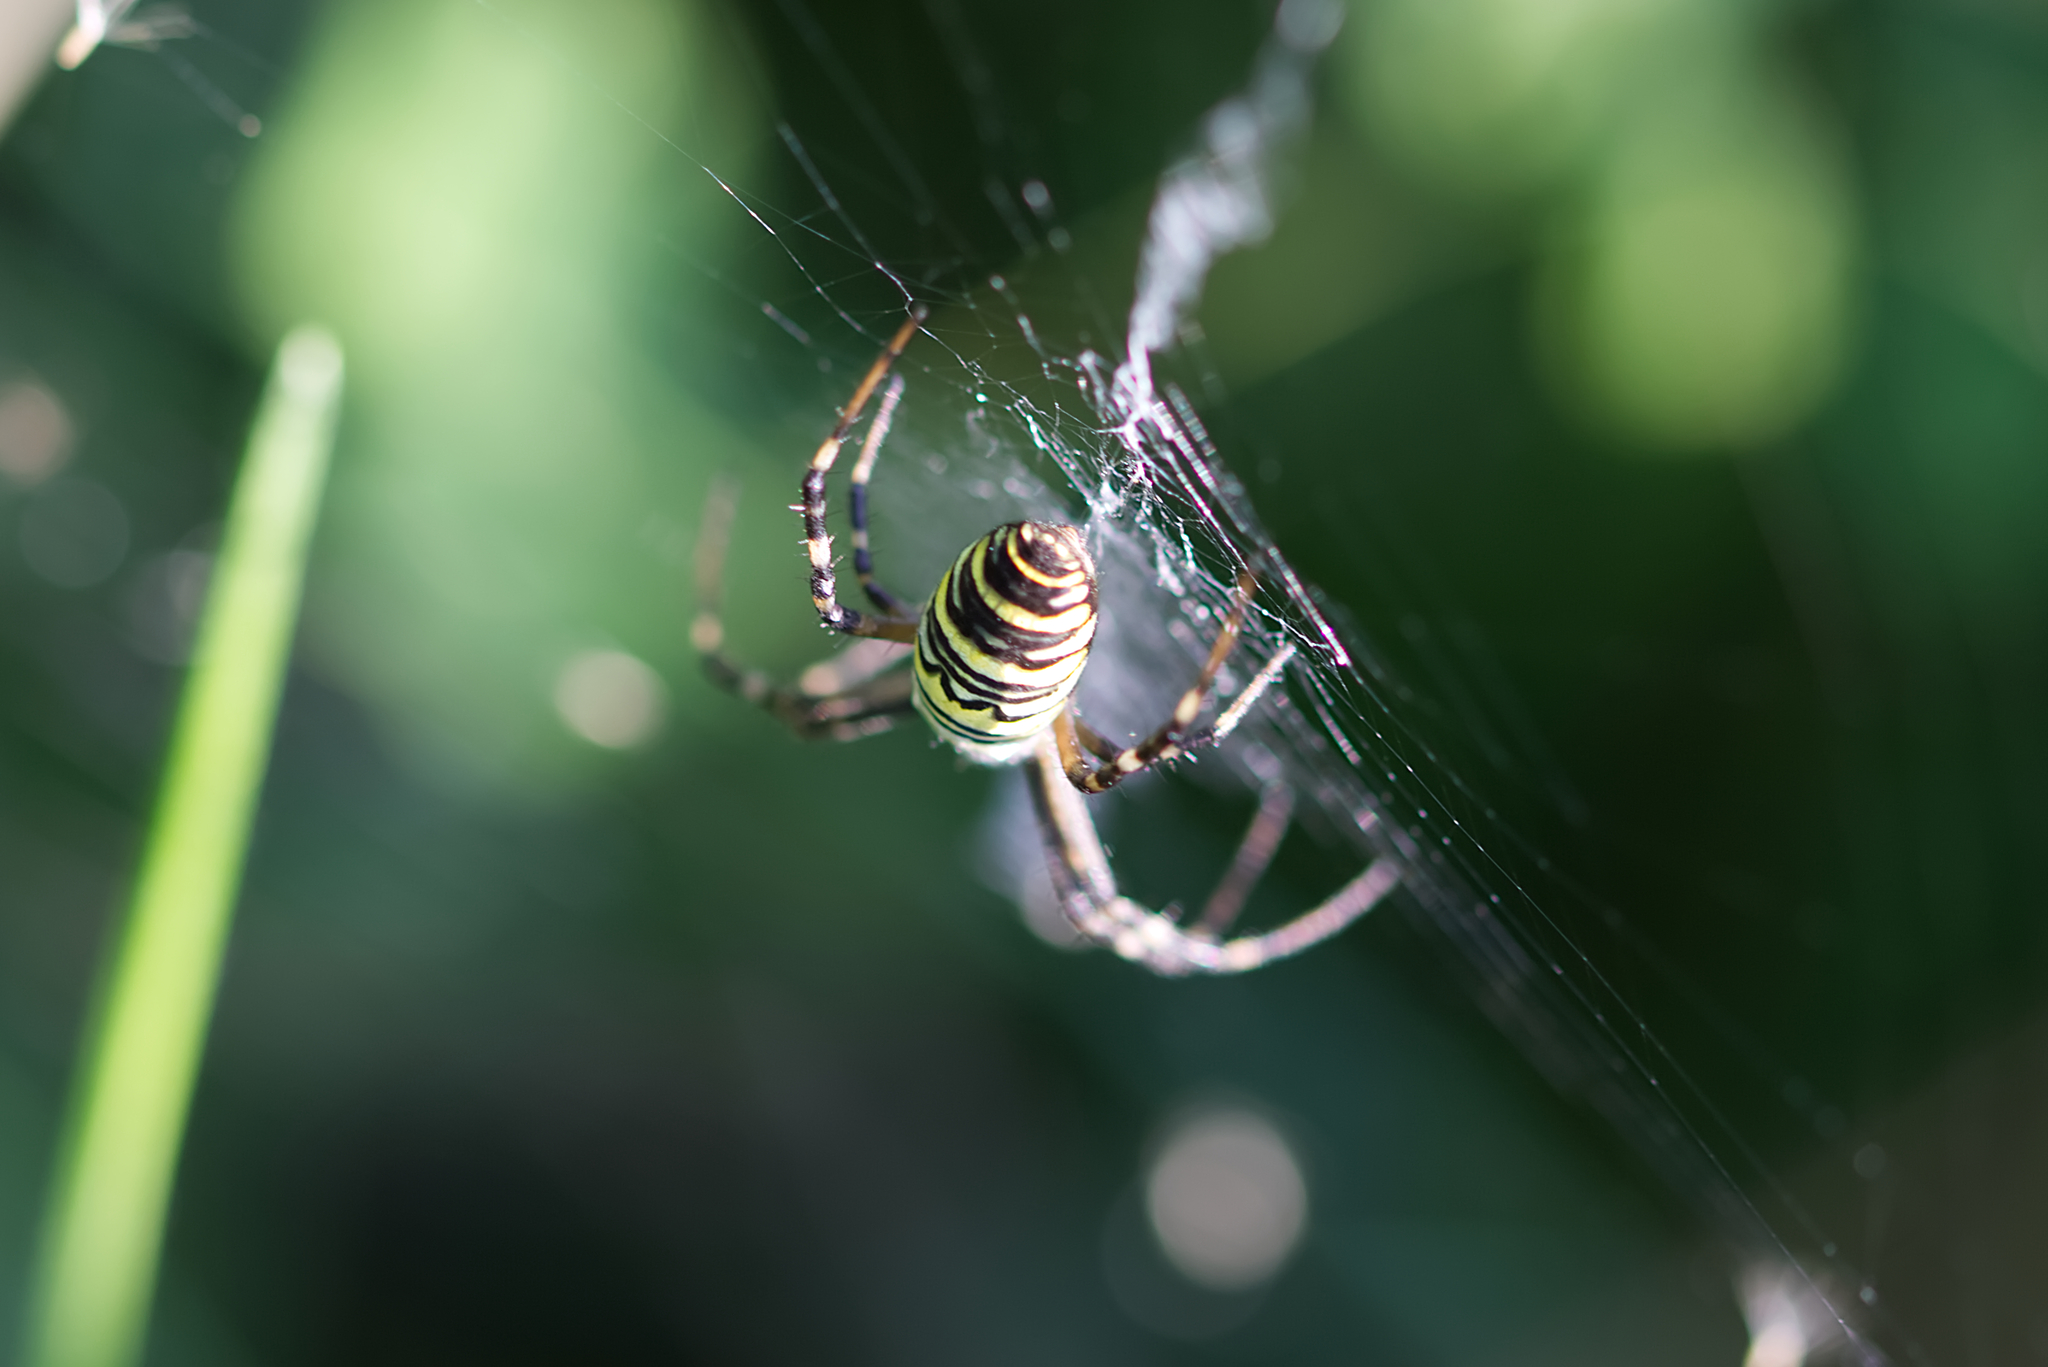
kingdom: Animalia
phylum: Arthropoda
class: Arachnida
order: Araneae
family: Araneidae
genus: Argiope
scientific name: Argiope bruennichi
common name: Wasp spider
